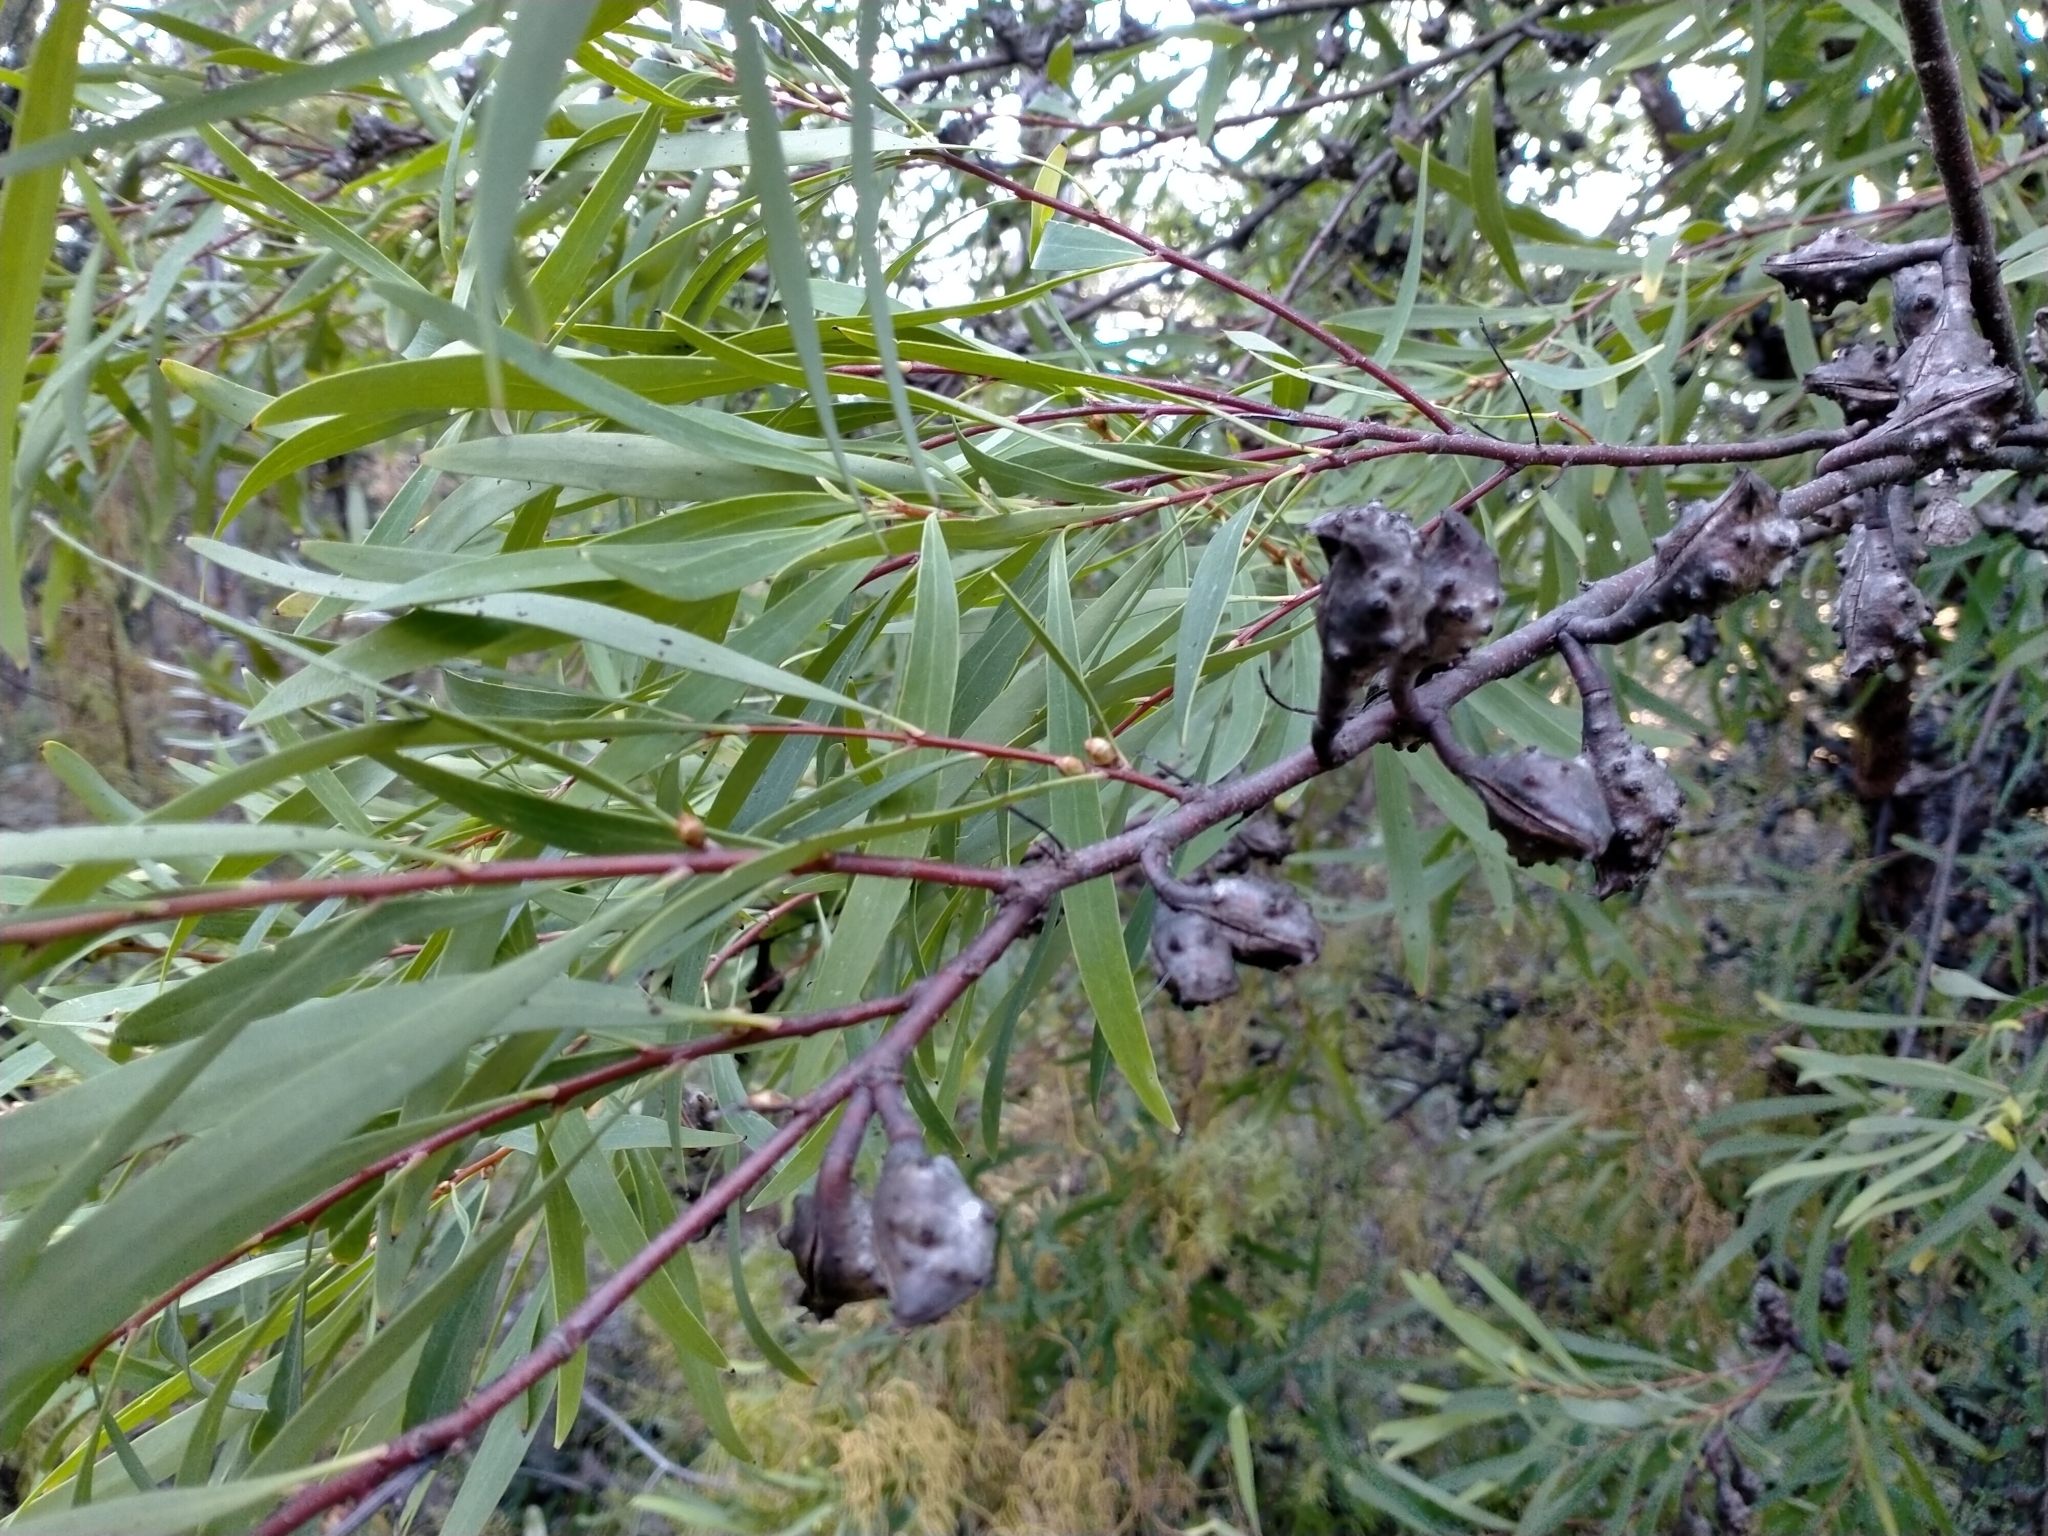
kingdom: Plantae
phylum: Tracheophyta
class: Magnoliopsida
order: Proteales
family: Proteaceae
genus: Hakea
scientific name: Hakea salicifolia
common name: Willow hakea
